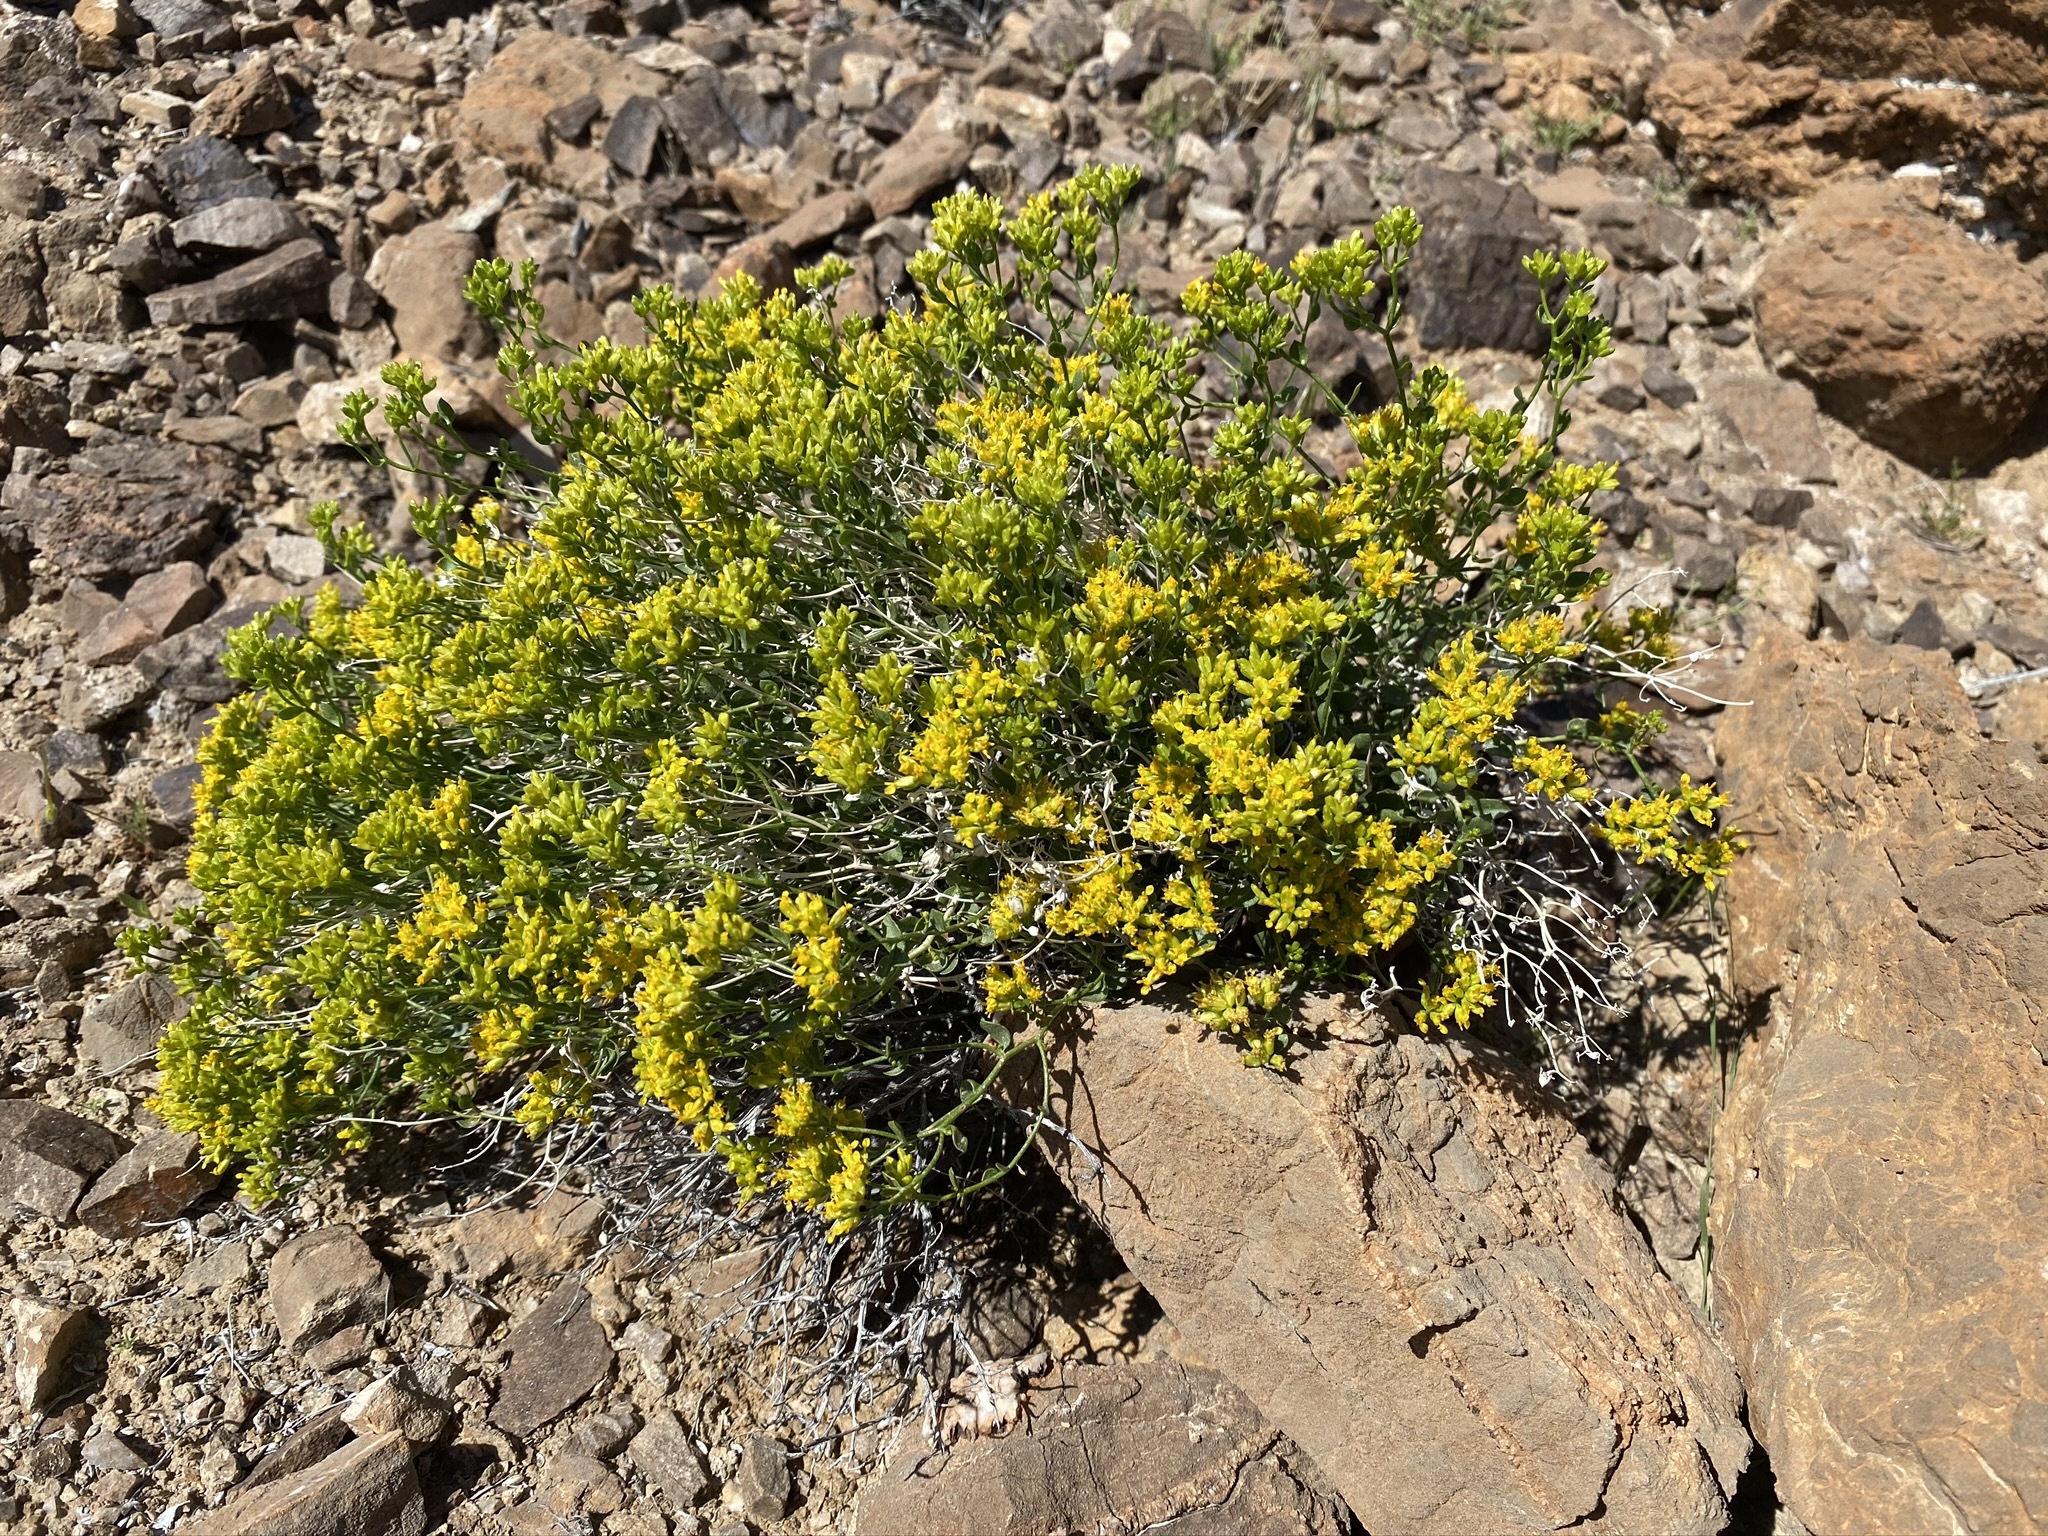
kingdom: Plantae
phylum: Tracheophyta
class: Magnoliopsida
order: Asterales
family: Asteraceae
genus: Amphipappus
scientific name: Amphipappus fremontii
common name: Fremont's chaffbush
